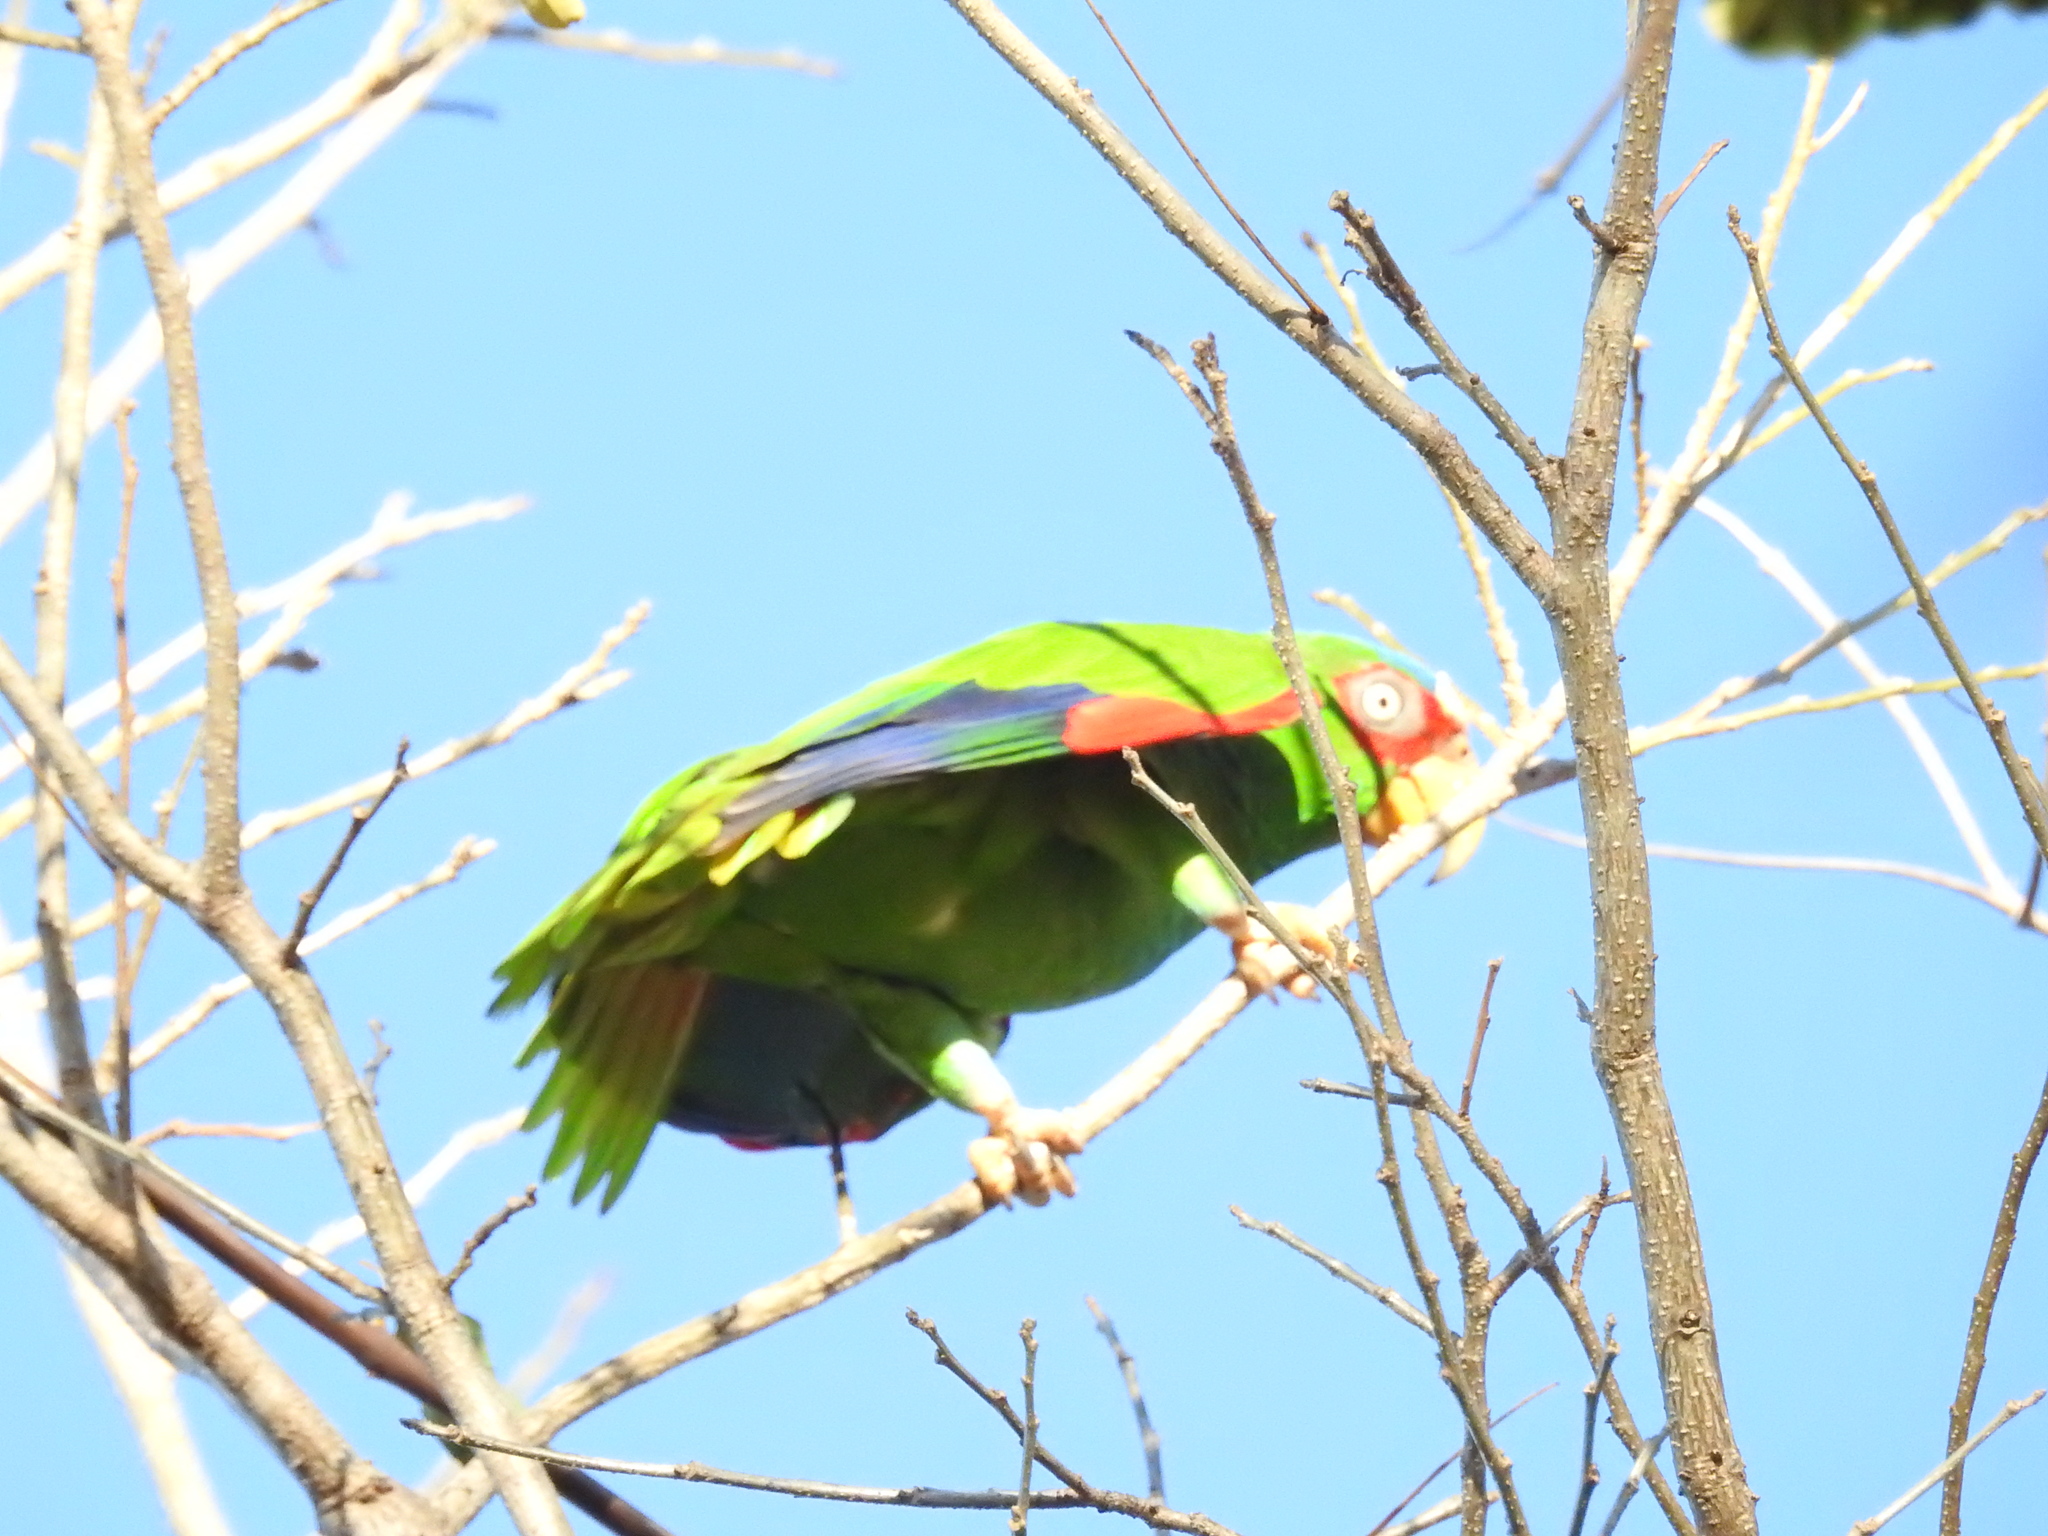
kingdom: Animalia
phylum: Chordata
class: Aves
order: Psittaciformes
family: Psittacidae
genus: Amazona
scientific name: Amazona albifrons
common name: White-fronted amazon
